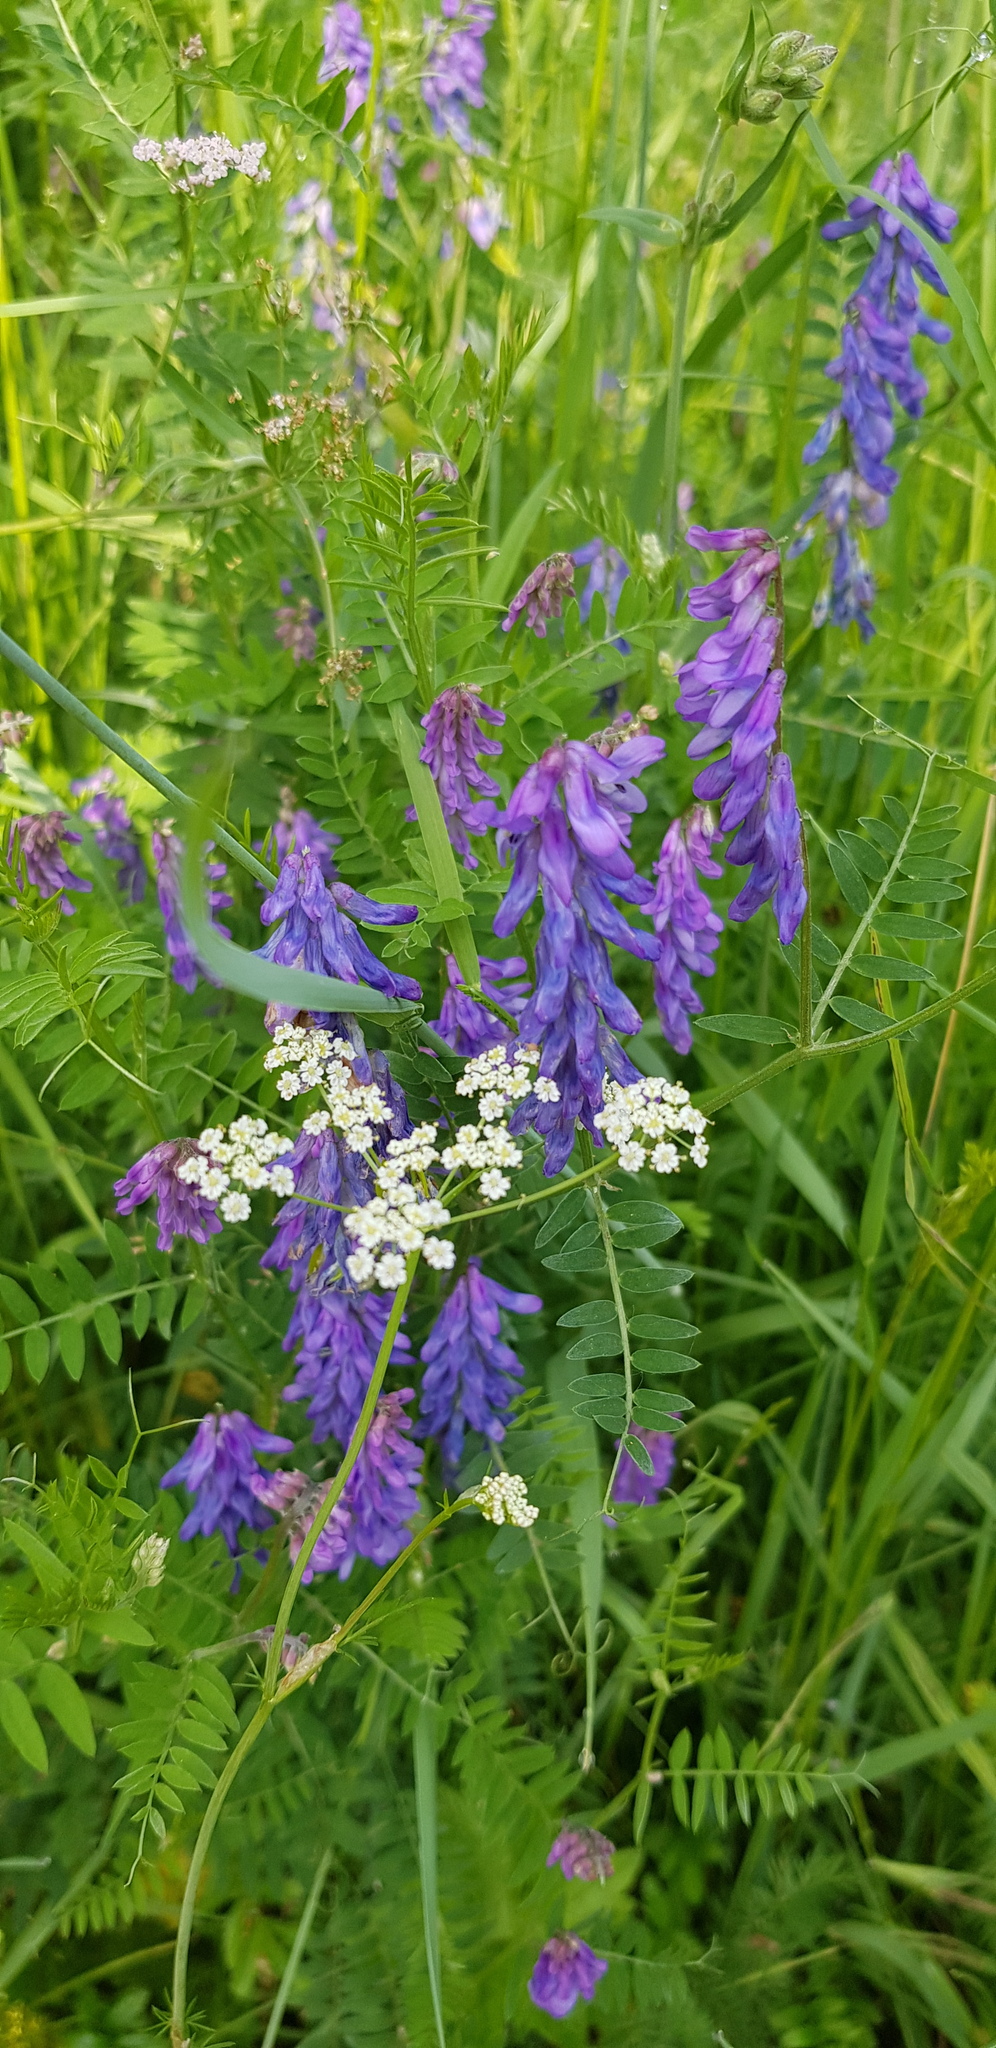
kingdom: Plantae
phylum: Tracheophyta
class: Magnoliopsida
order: Fabales
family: Fabaceae
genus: Vicia
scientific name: Vicia cracca
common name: Bird vetch
